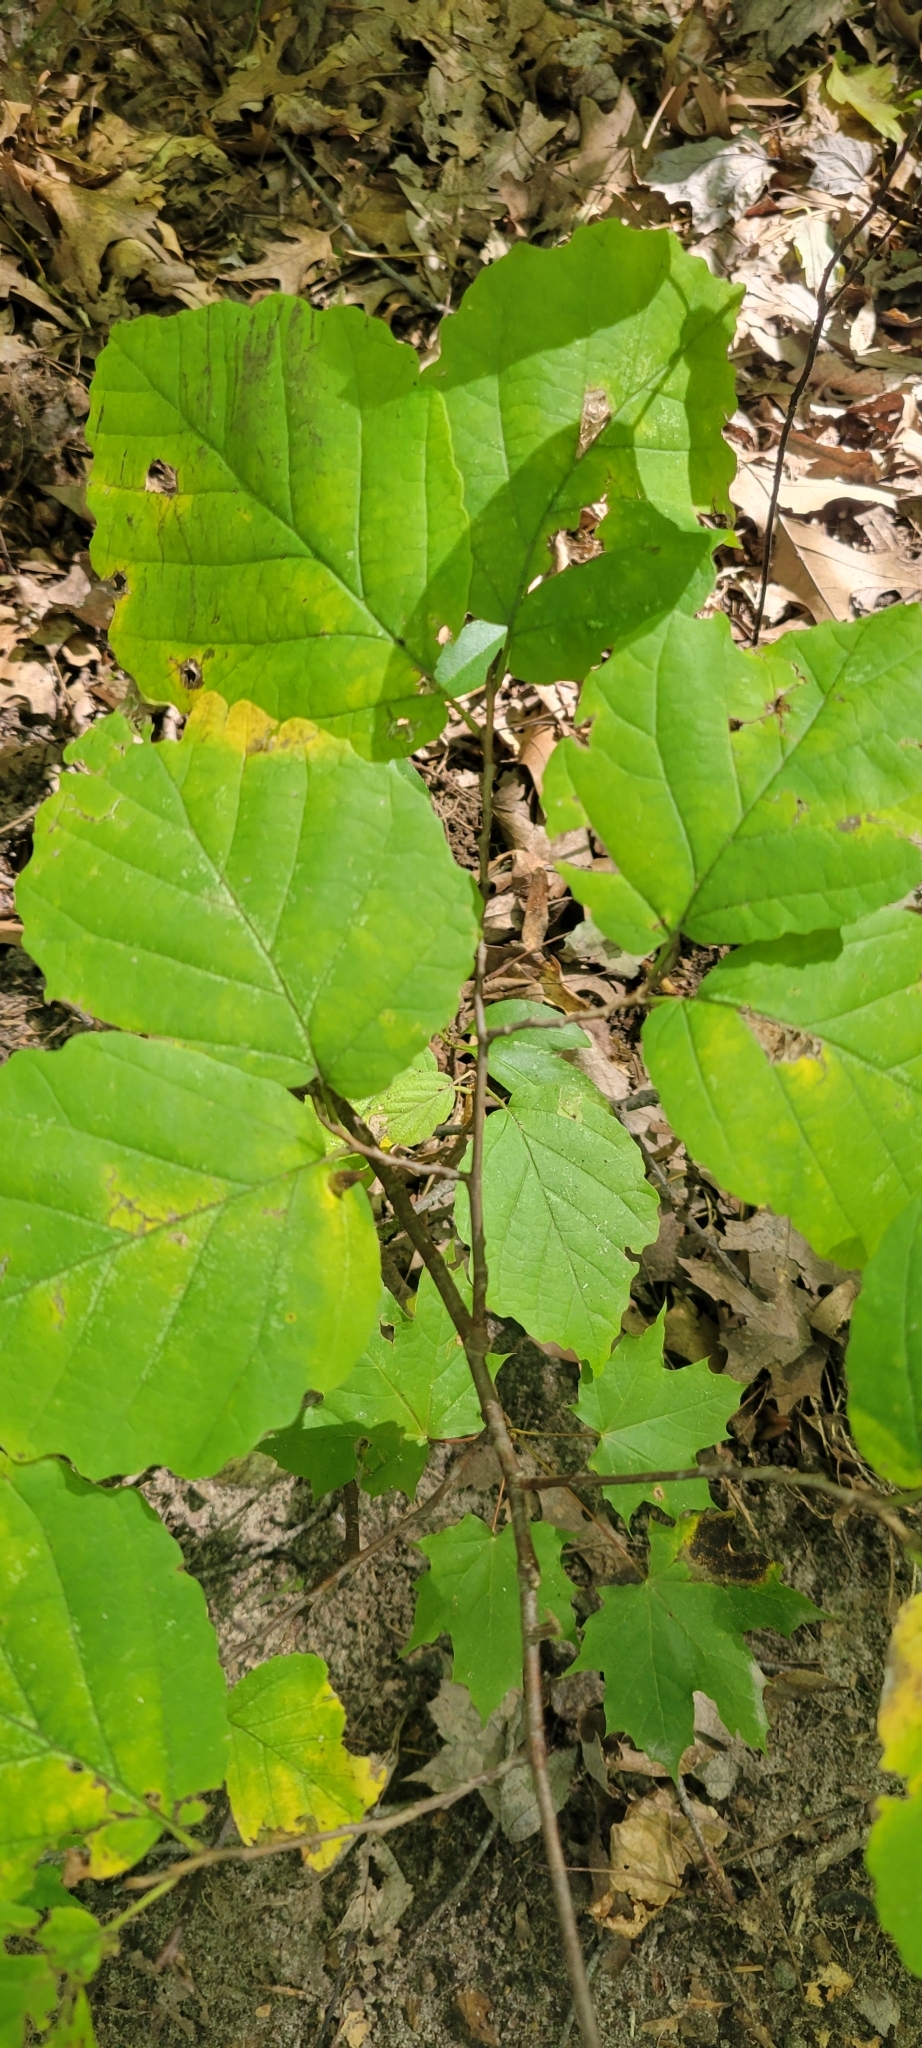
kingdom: Plantae
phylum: Tracheophyta
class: Magnoliopsida
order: Saxifragales
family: Hamamelidaceae
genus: Hamamelis
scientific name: Hamamelis virginiana
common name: Witch-hazel
